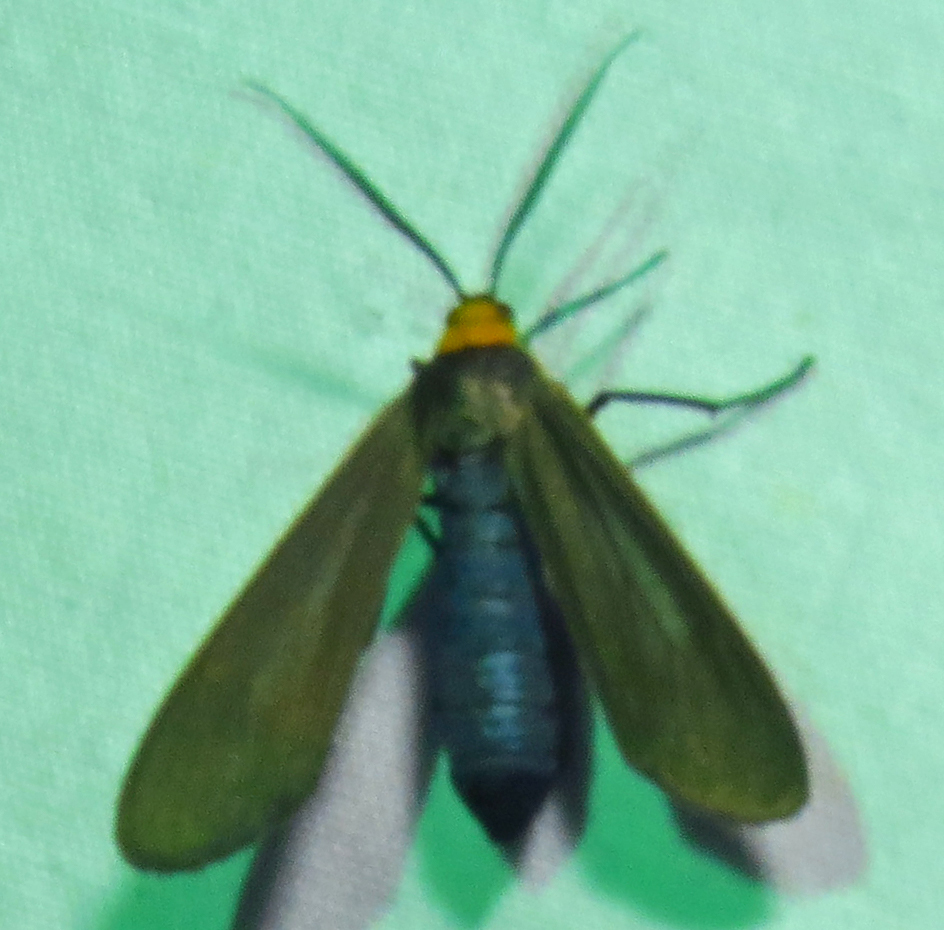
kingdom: Animalia
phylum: Arthropoda
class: Insecta
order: Lepidoptera
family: Erebidae
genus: Cisseps
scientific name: Cisseps fulvicollis
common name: Yellow-collared scape moth
